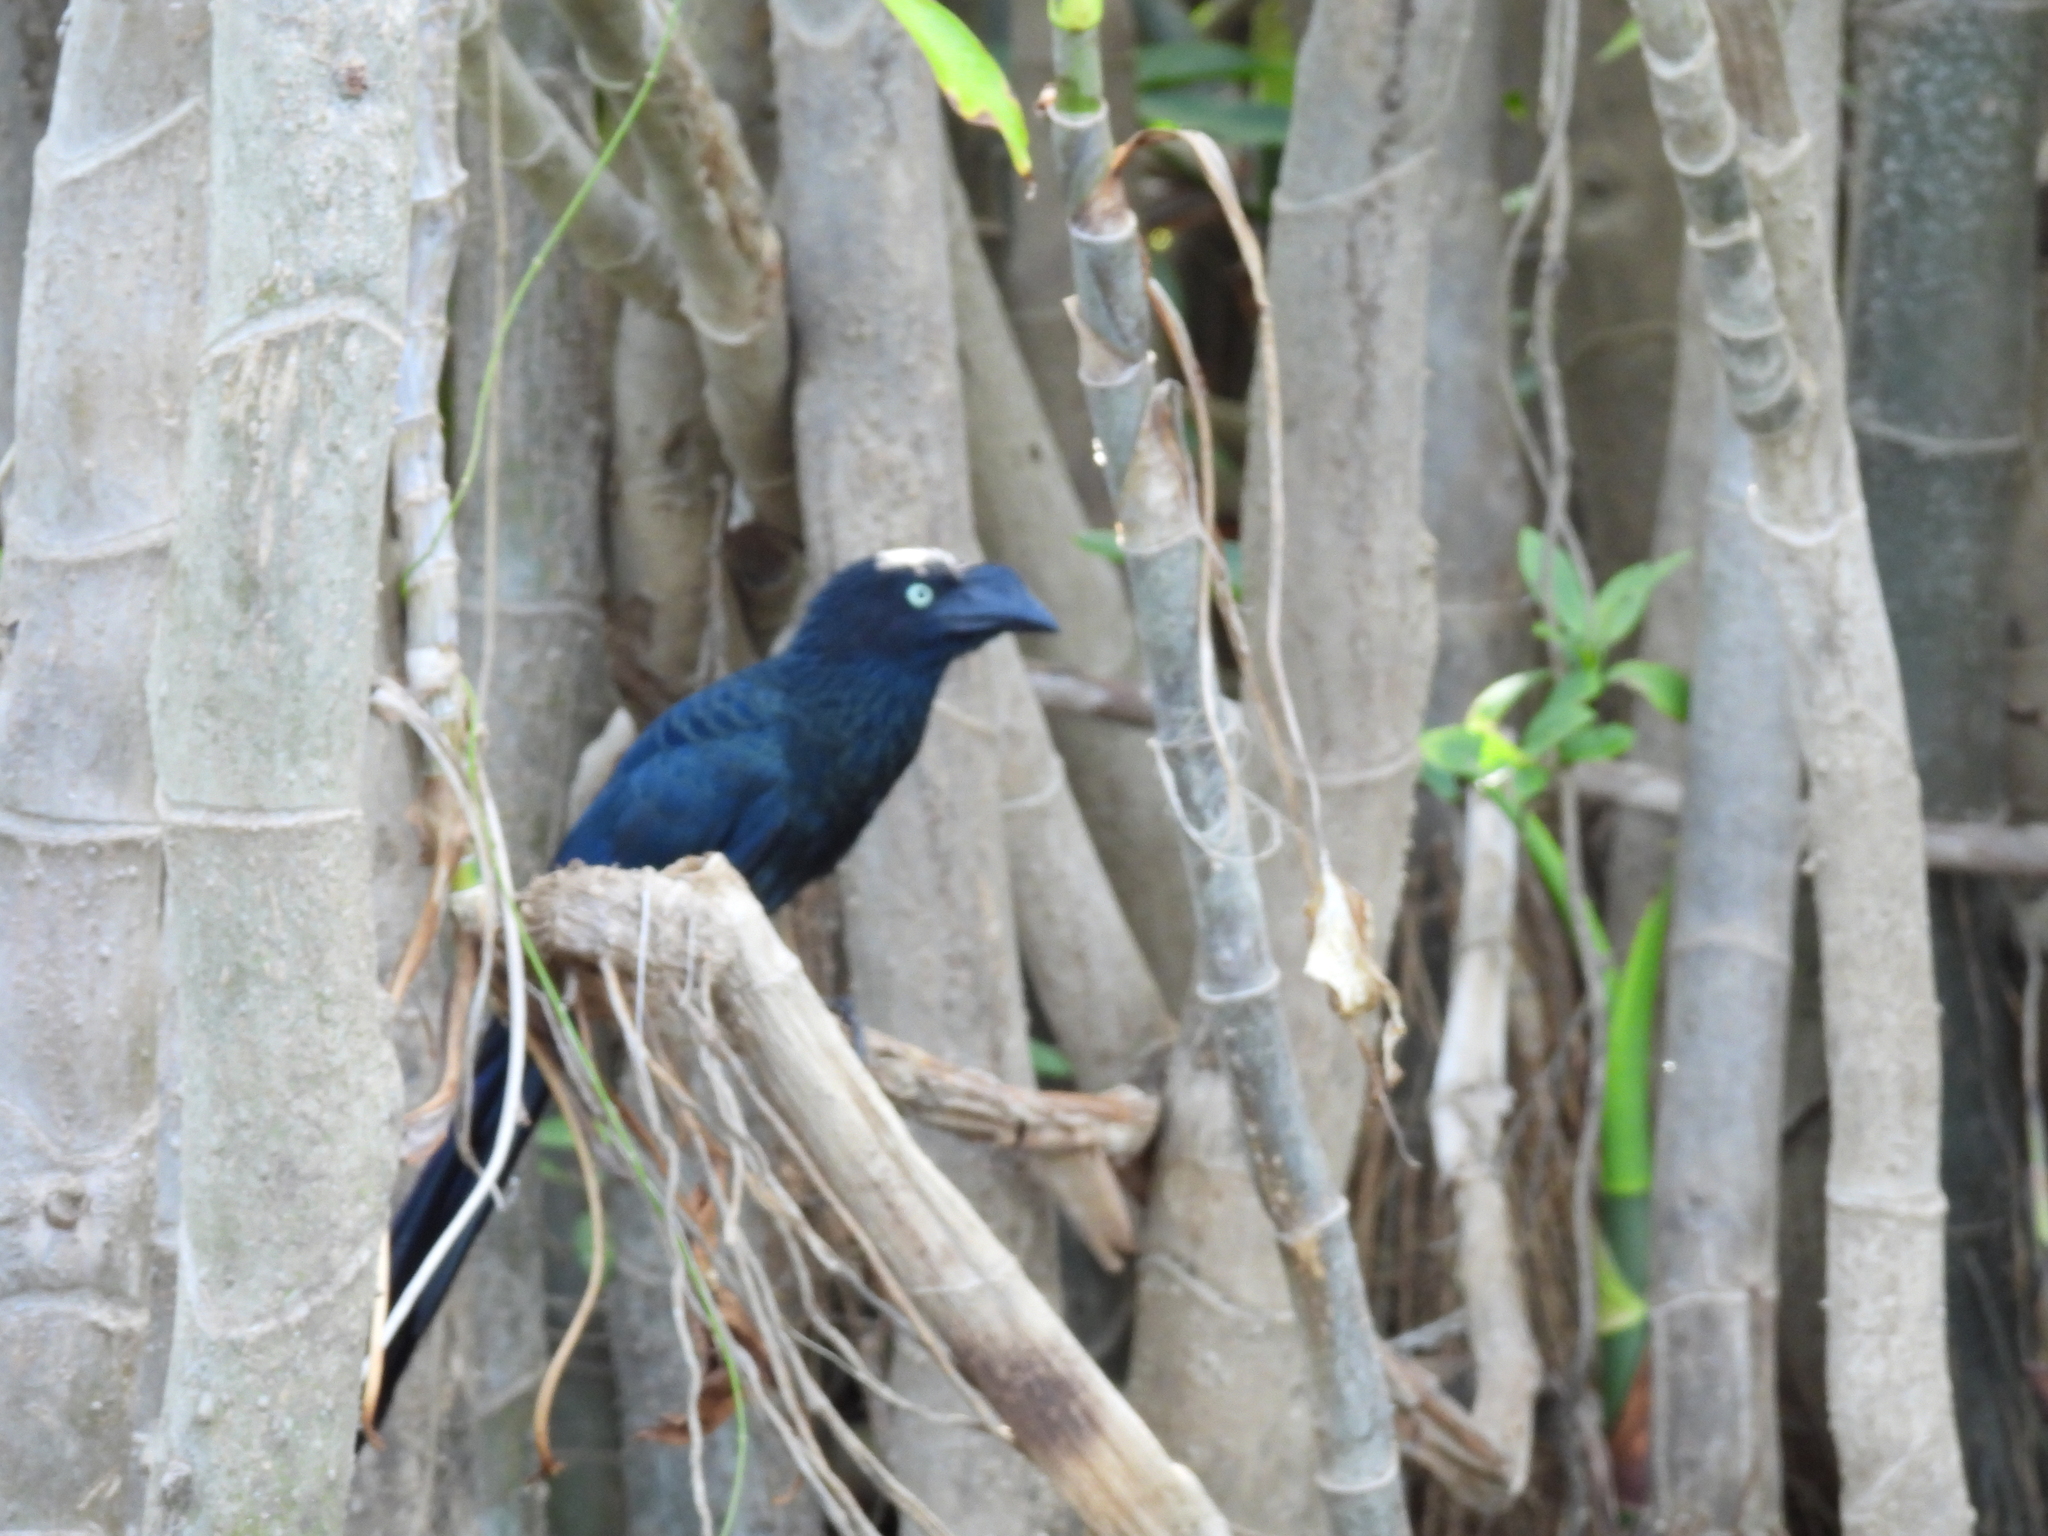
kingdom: Animalia
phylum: Chordata
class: Aves
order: Cuculiformes
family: Cuculidae
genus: Crotophaga
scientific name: Crotophaga major
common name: Greater ani
